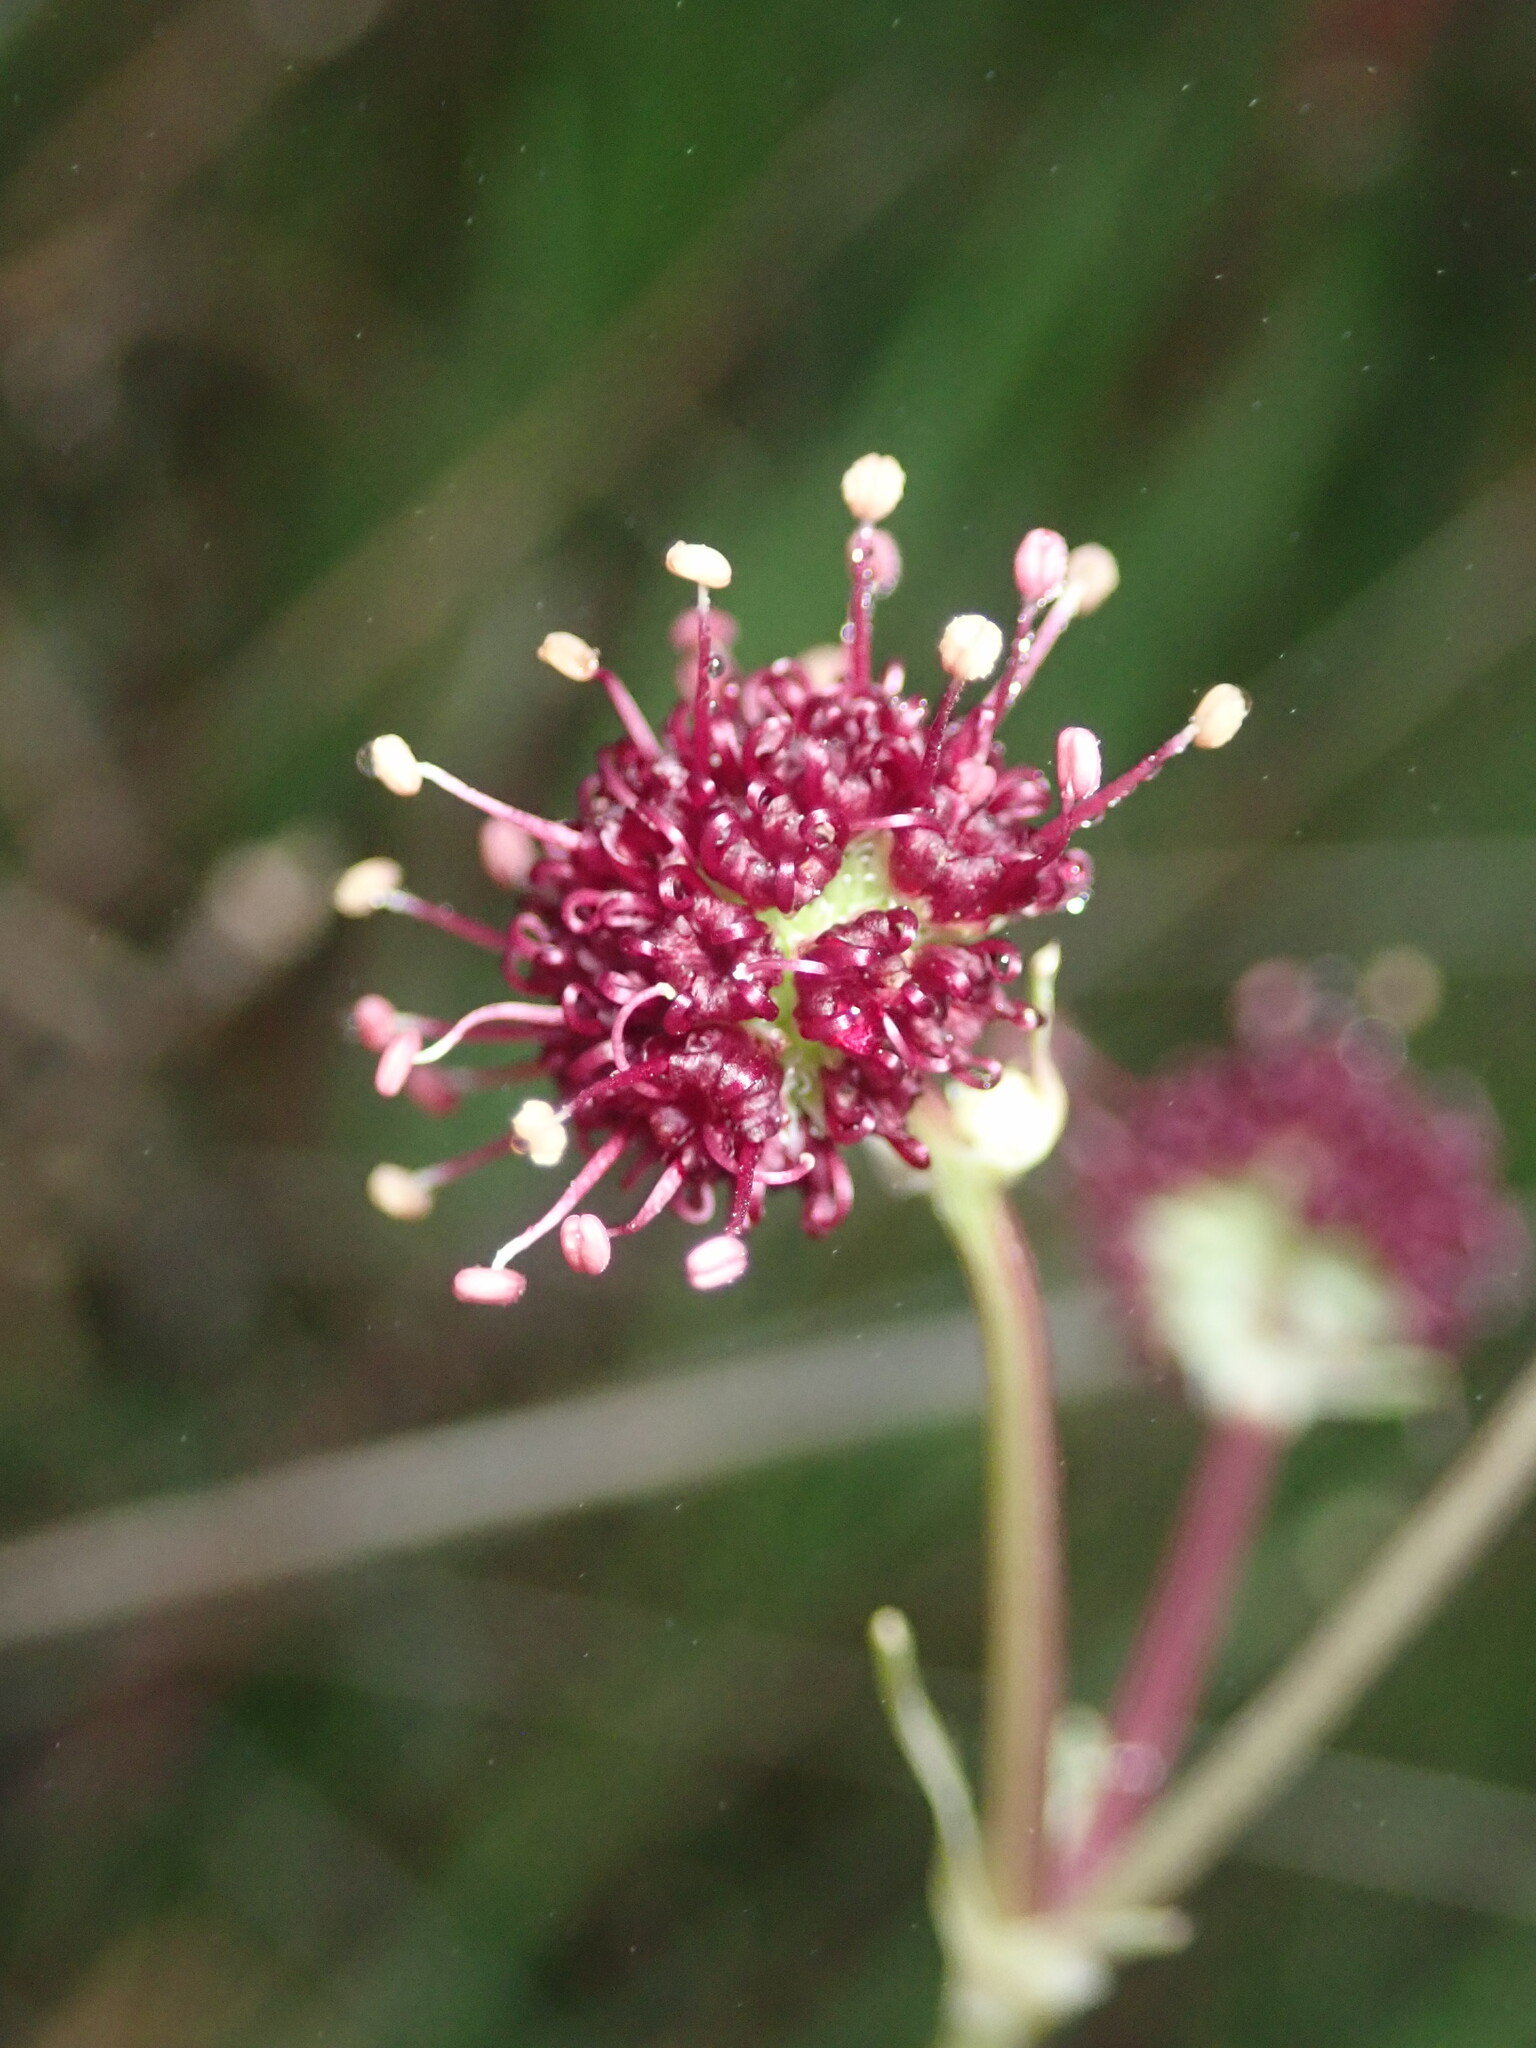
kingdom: Plantae
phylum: Tracheophyta
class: Magnoliopsida
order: Apiales
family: Apiaceae
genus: Sanicula
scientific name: Sanicula bipinnatifida
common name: Shoe-buttons
